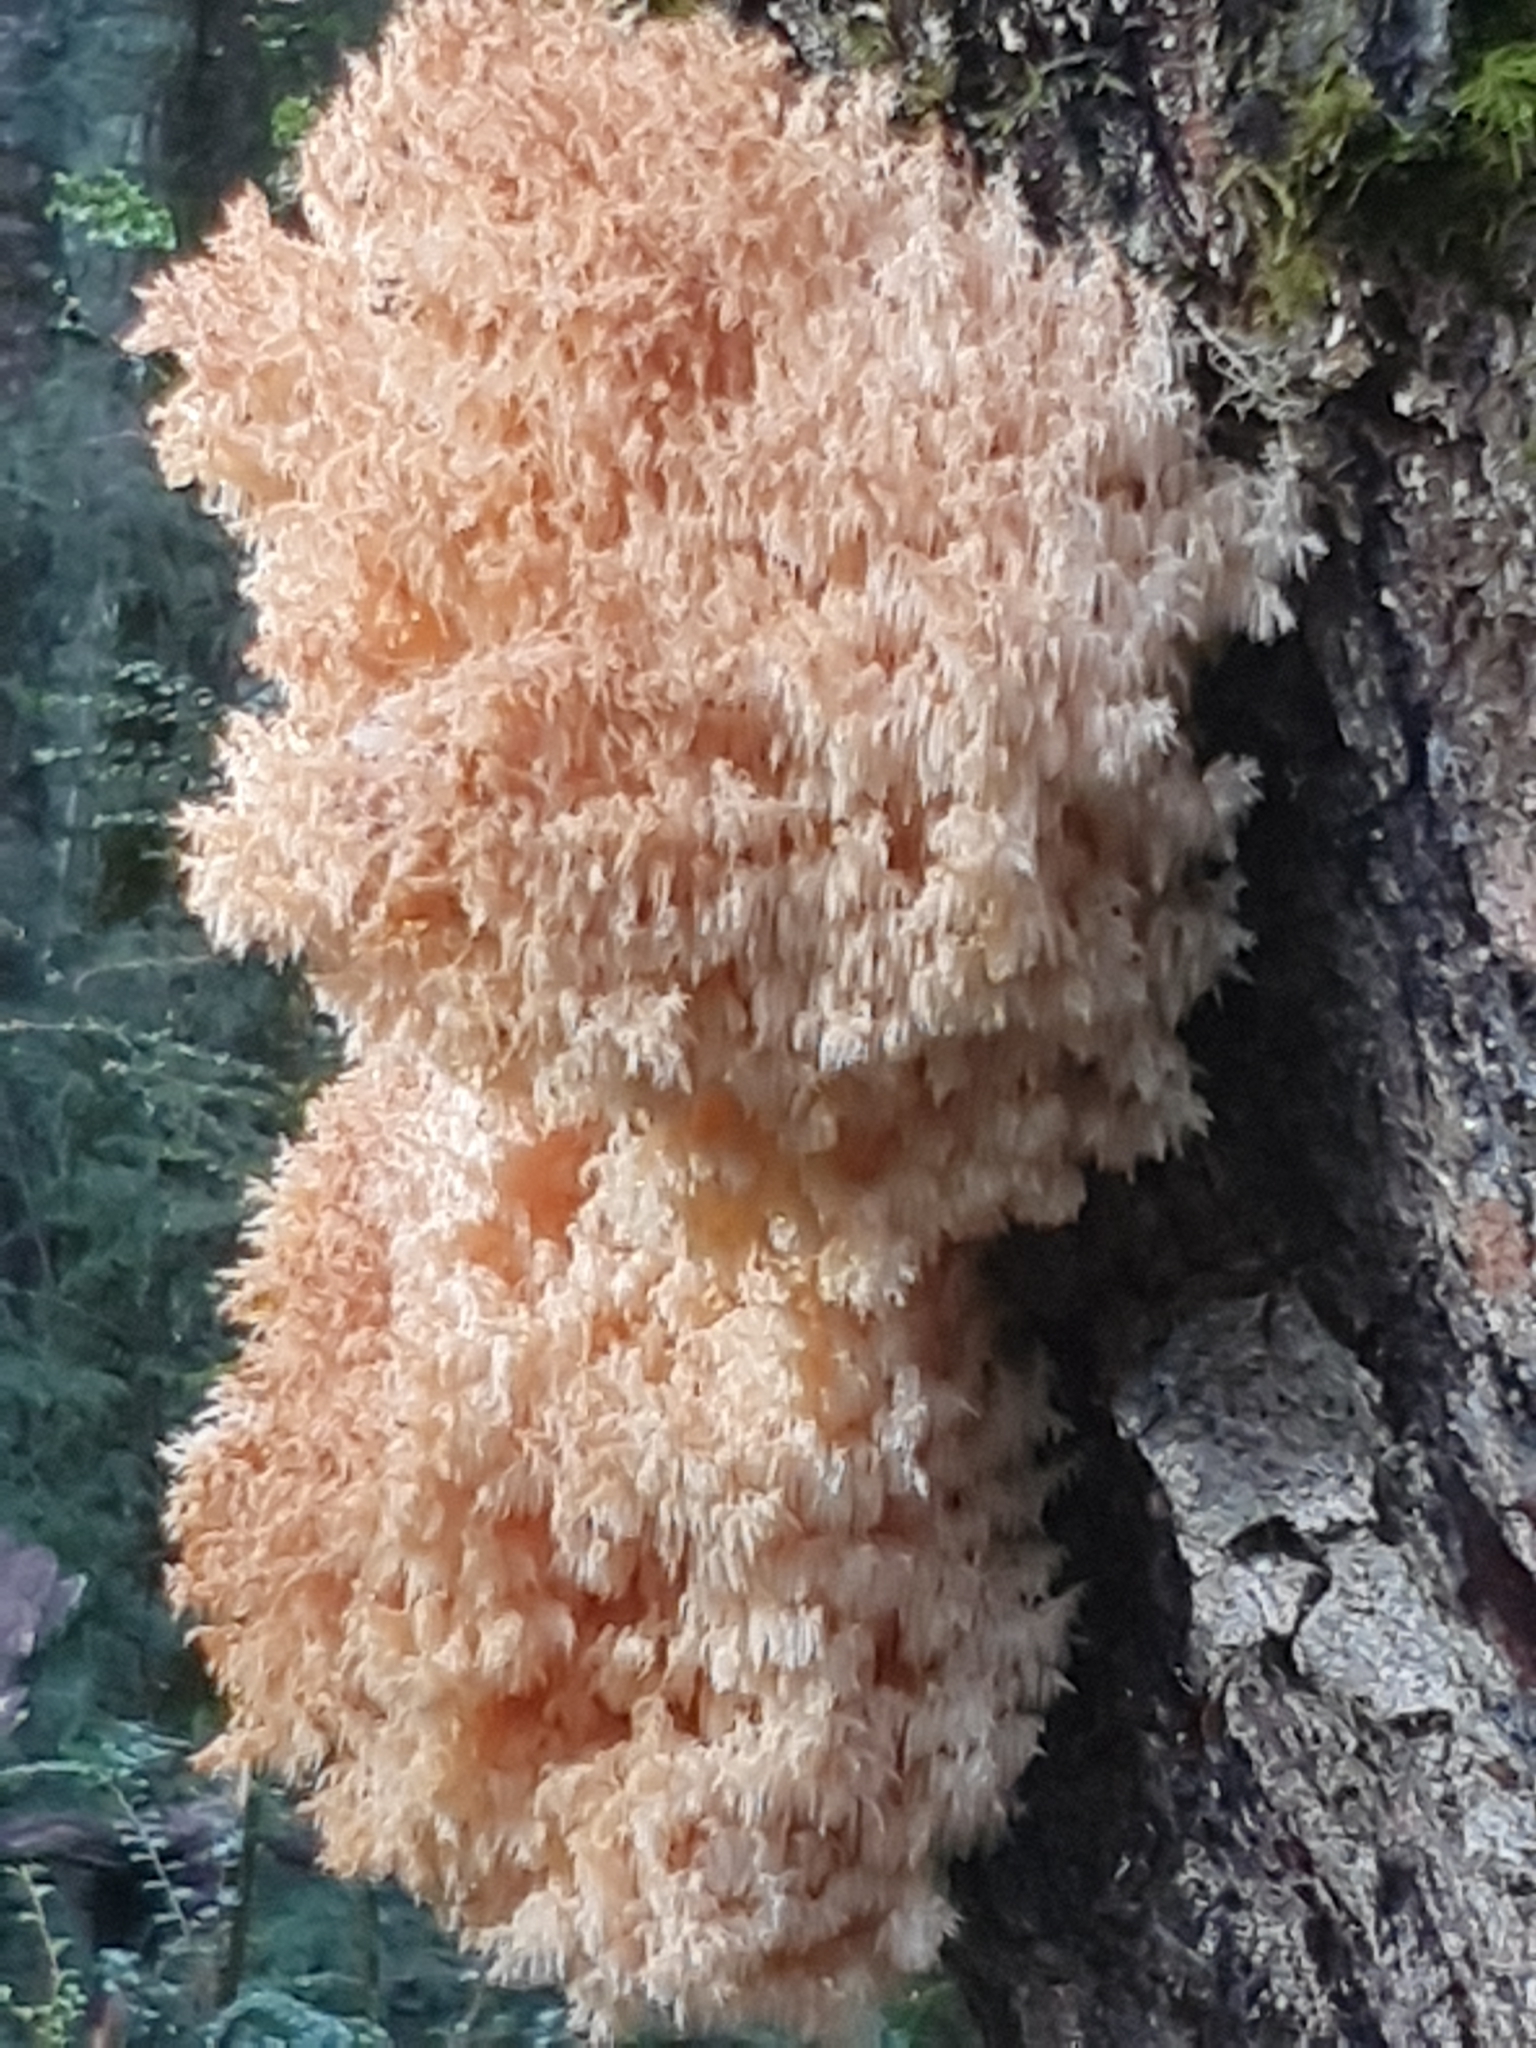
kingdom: Fungi
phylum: Basidiomycota
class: Agaricomycetes
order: Russulales
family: Hericiaceae
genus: Hericium
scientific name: Hericium coralloides
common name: Coral tooth
